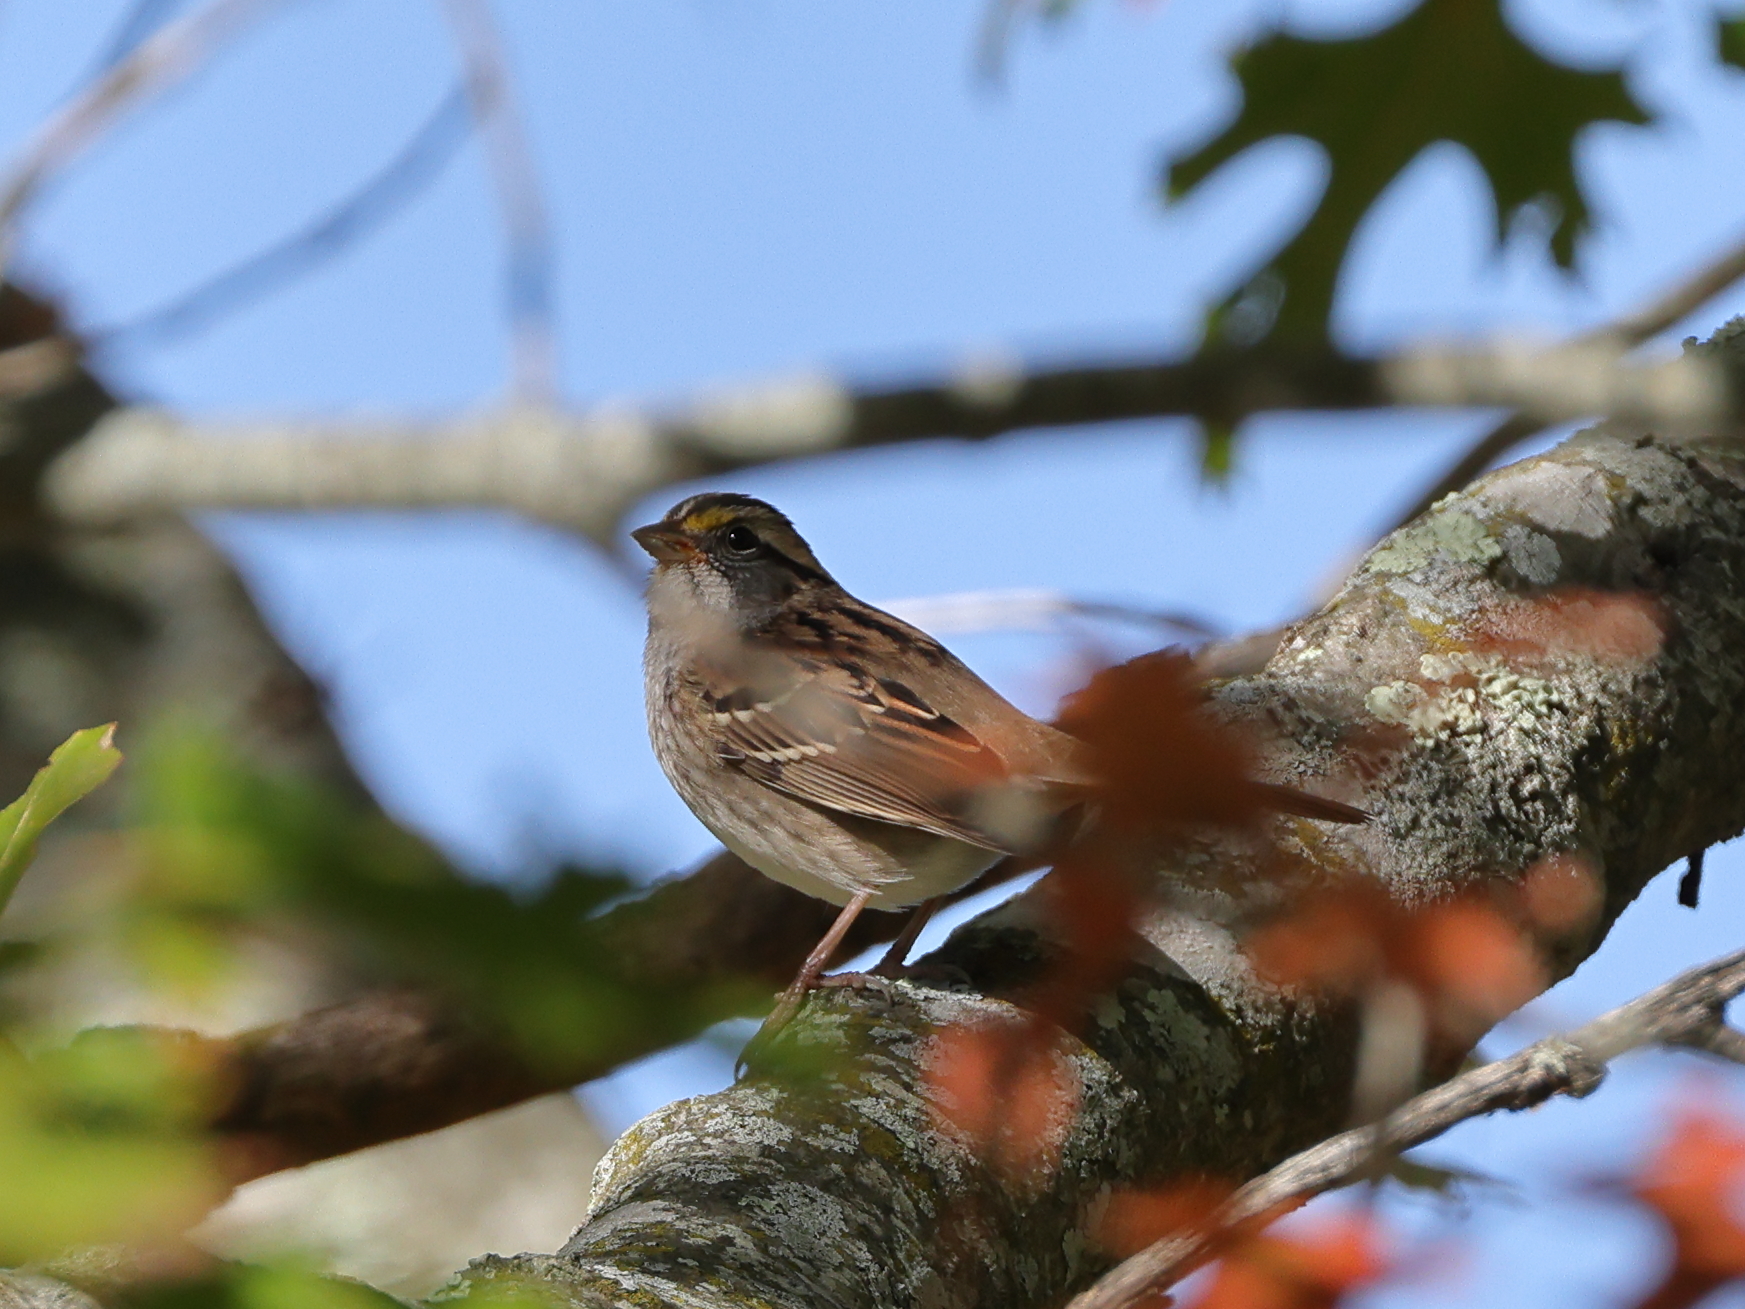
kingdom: Animalia
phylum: Chordata
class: Aves
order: Passeriformes
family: Passerellidae
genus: Zonotrichia
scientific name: Zonotrichia albicollis
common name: White-throated sparrow
